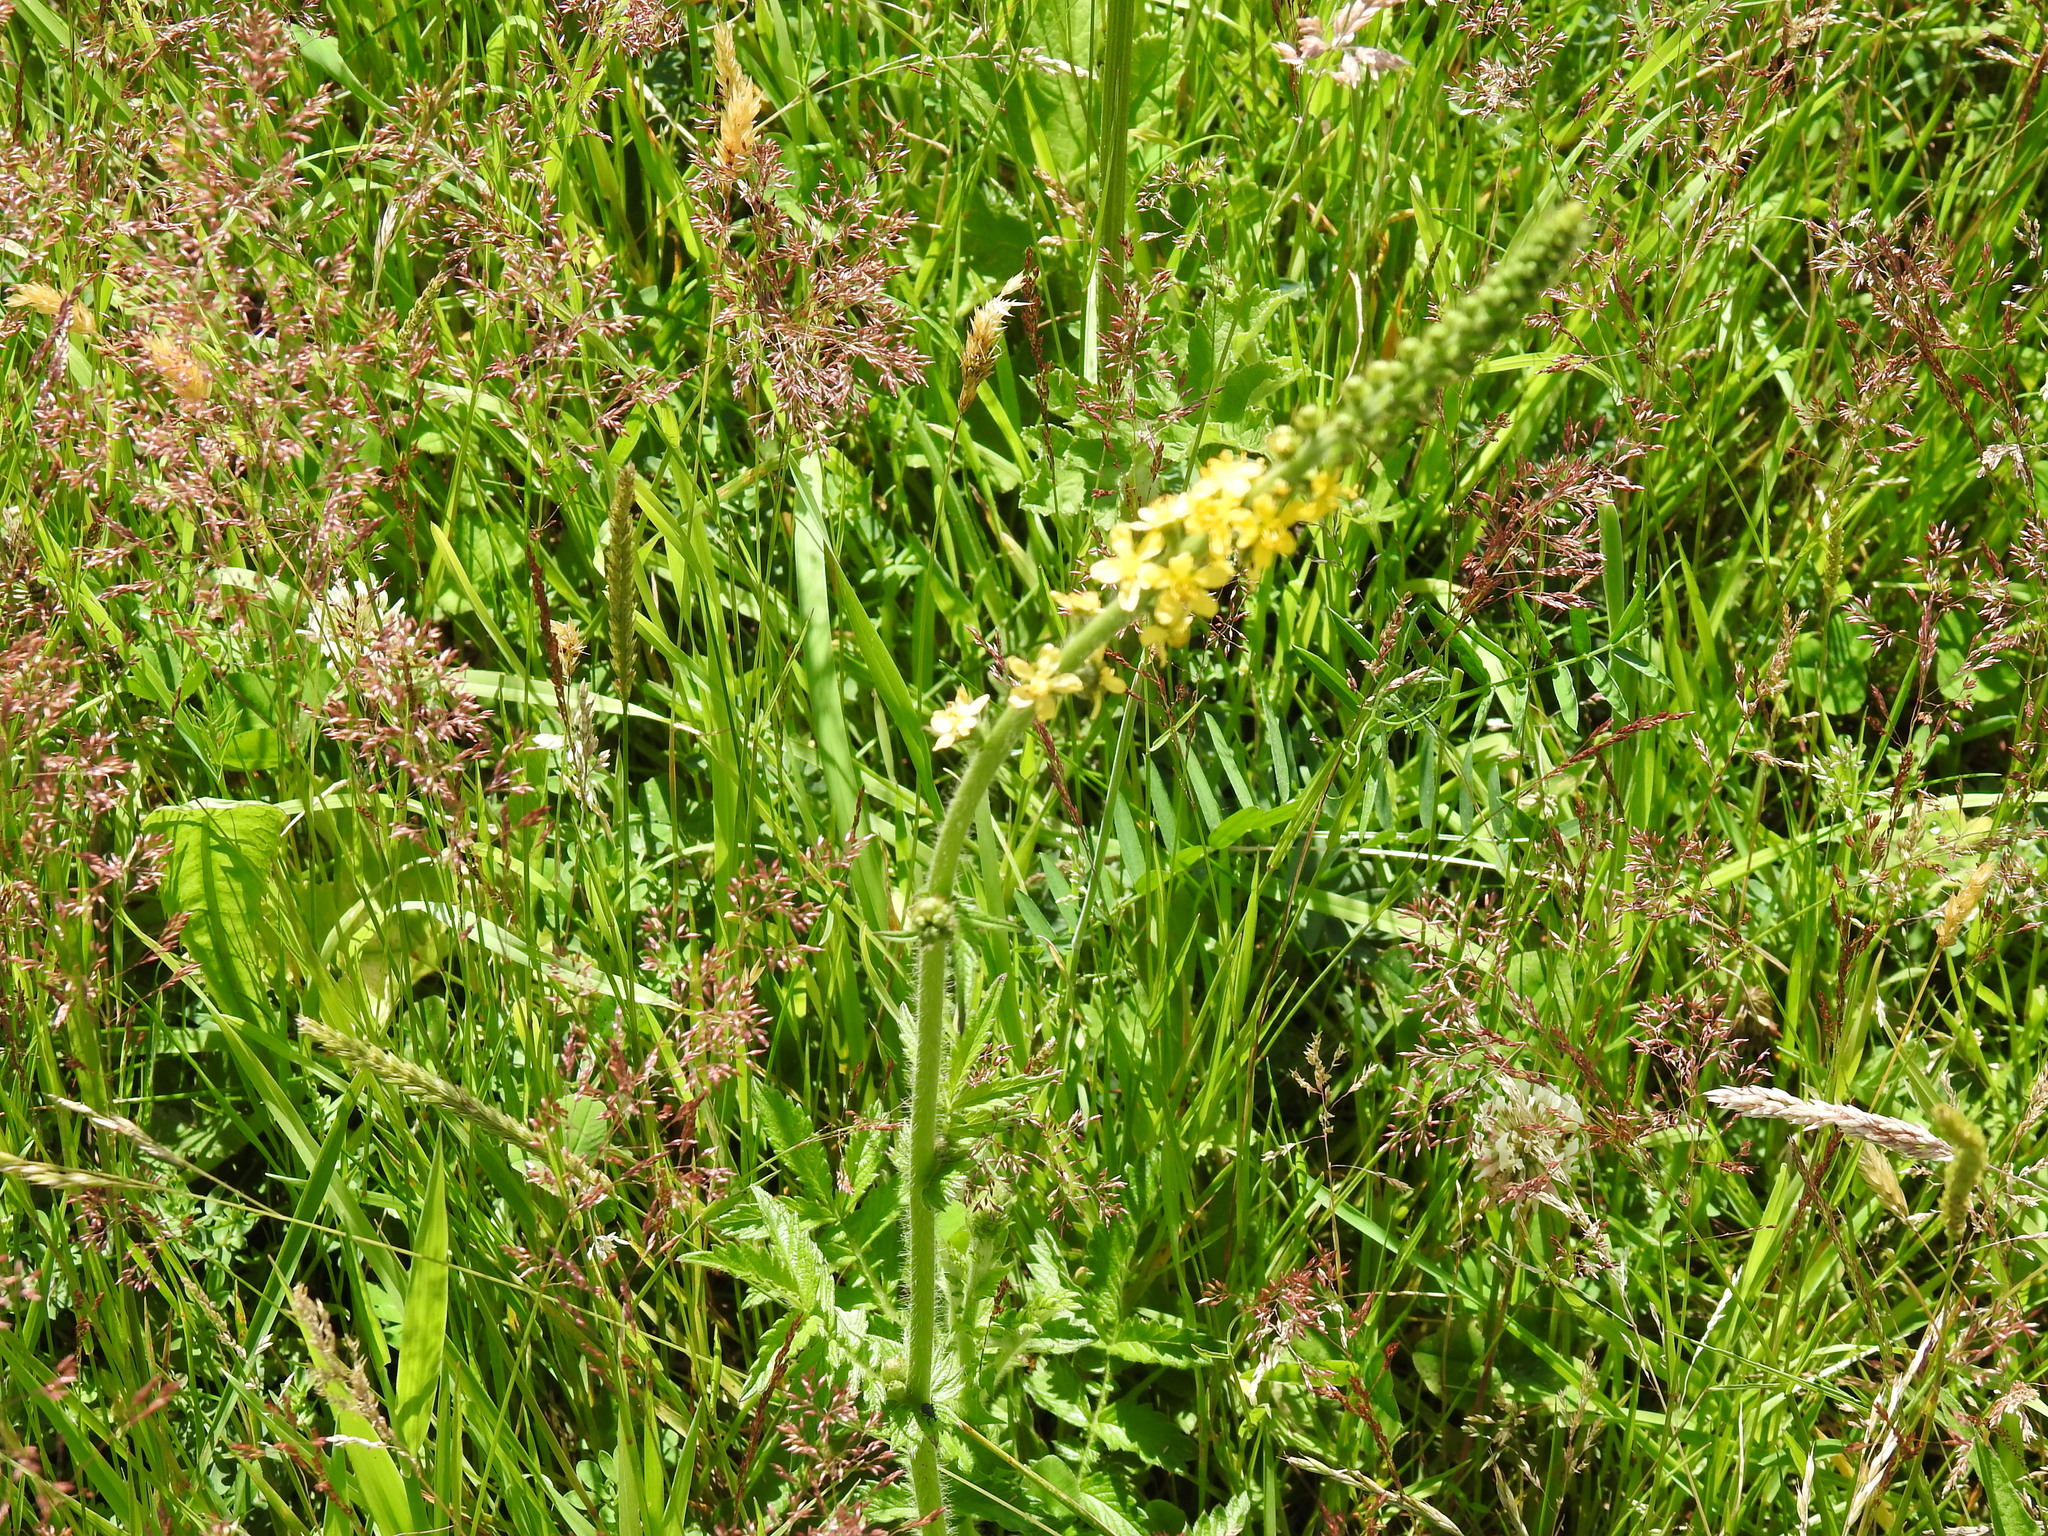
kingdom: Plantae
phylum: Tracheophyta
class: Magnoliopsida
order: Rosales
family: Rosaceae
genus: Agrimonia
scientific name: Agrimonia eupatoria
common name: Agrimony
